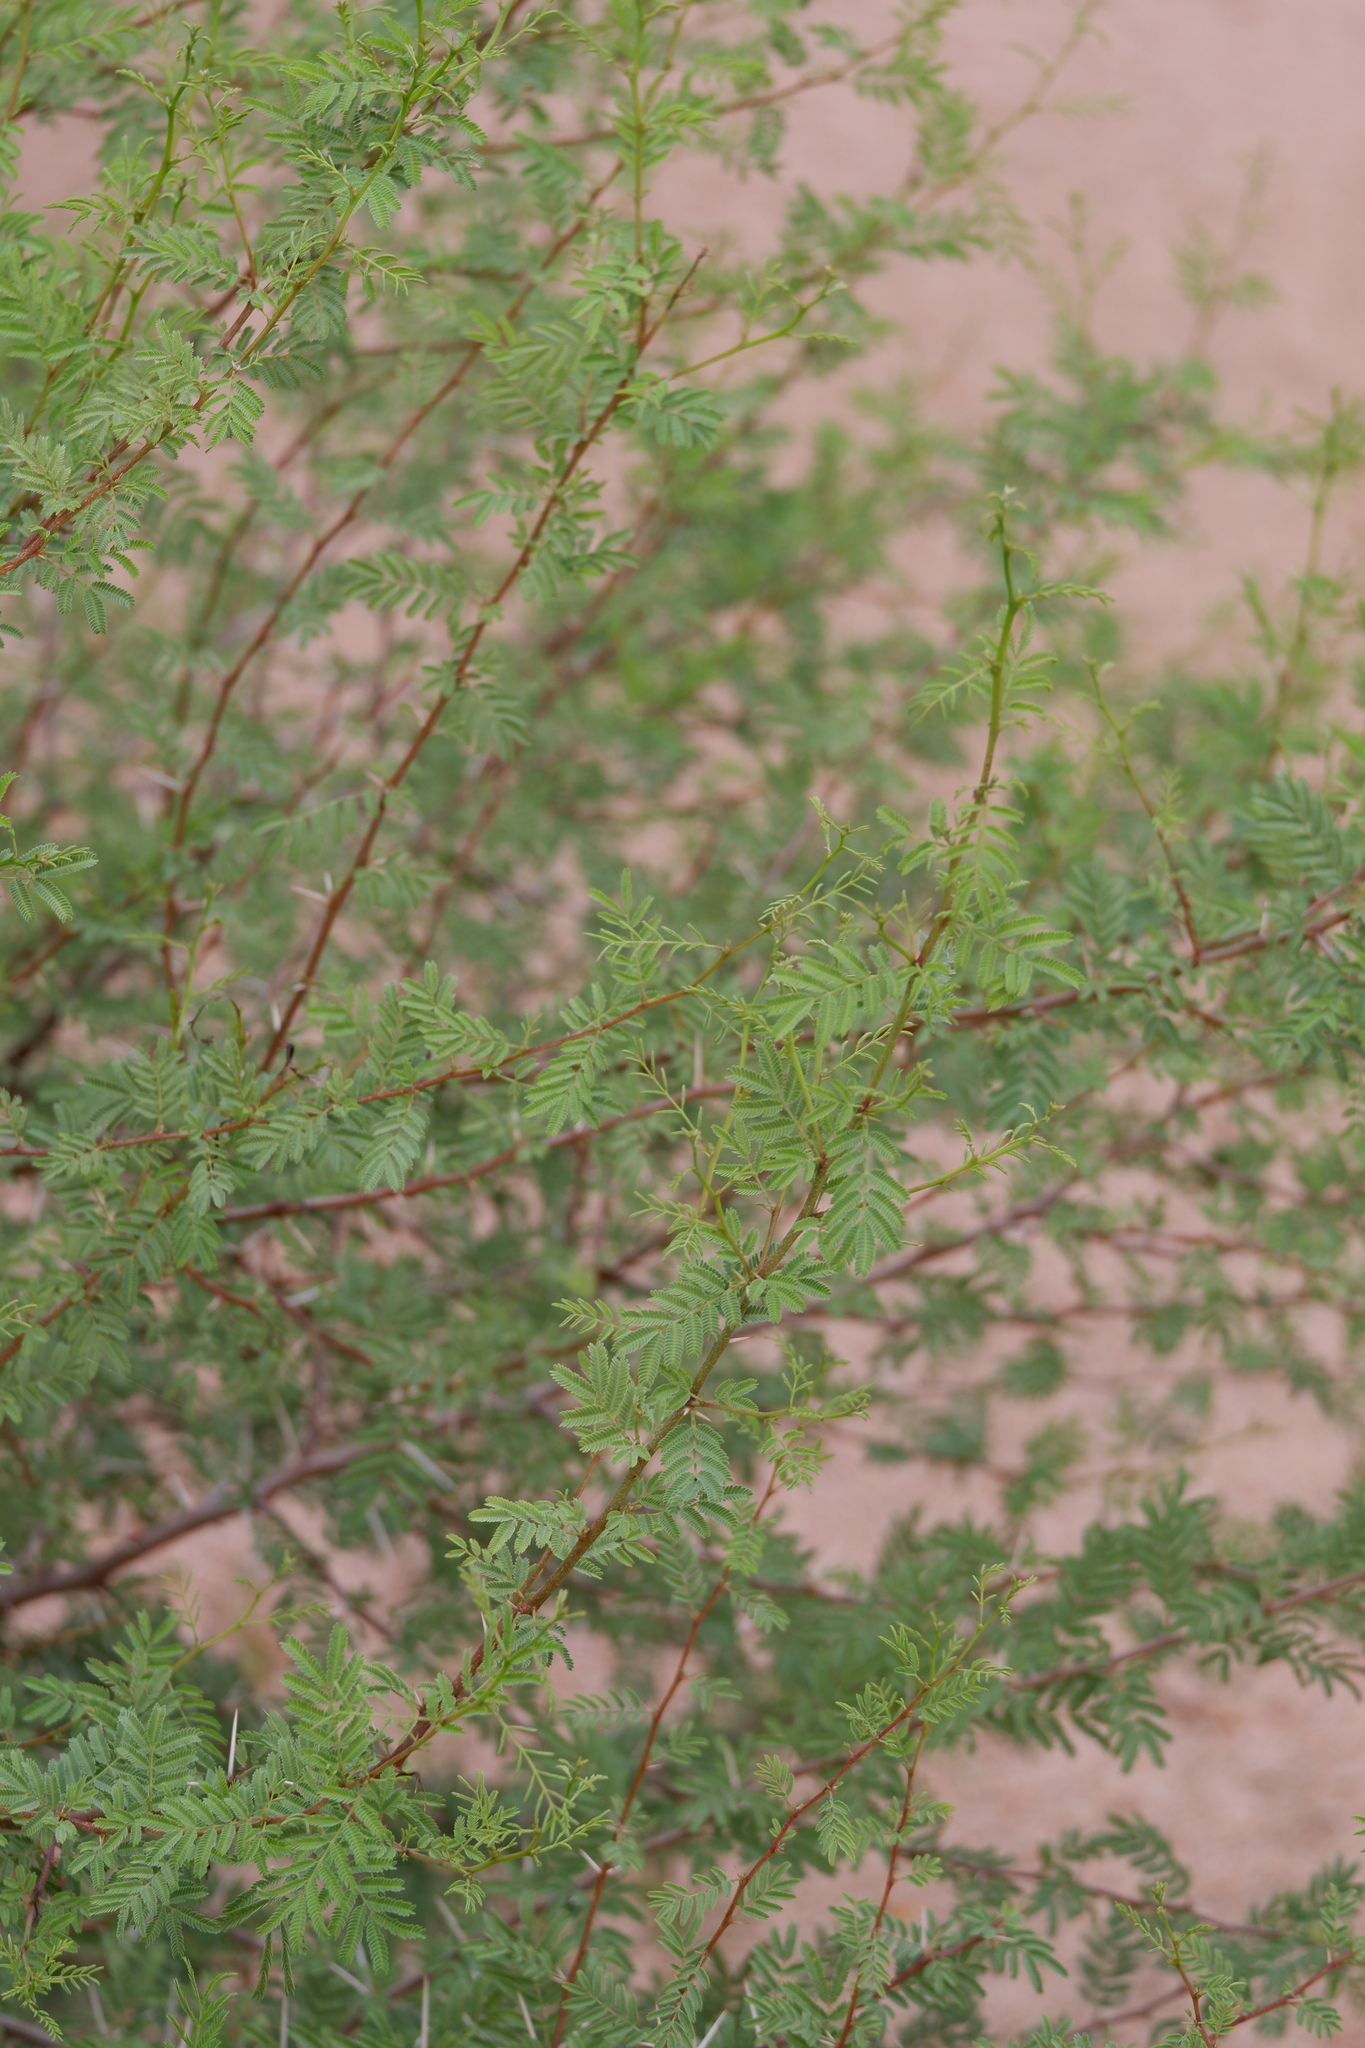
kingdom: Plantae
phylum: Tracheophyta
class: Magnoliopsida
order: Fabales
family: Fabaceae
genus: Vachellia
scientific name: Vachellia farnesiana
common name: Sweet acacia
